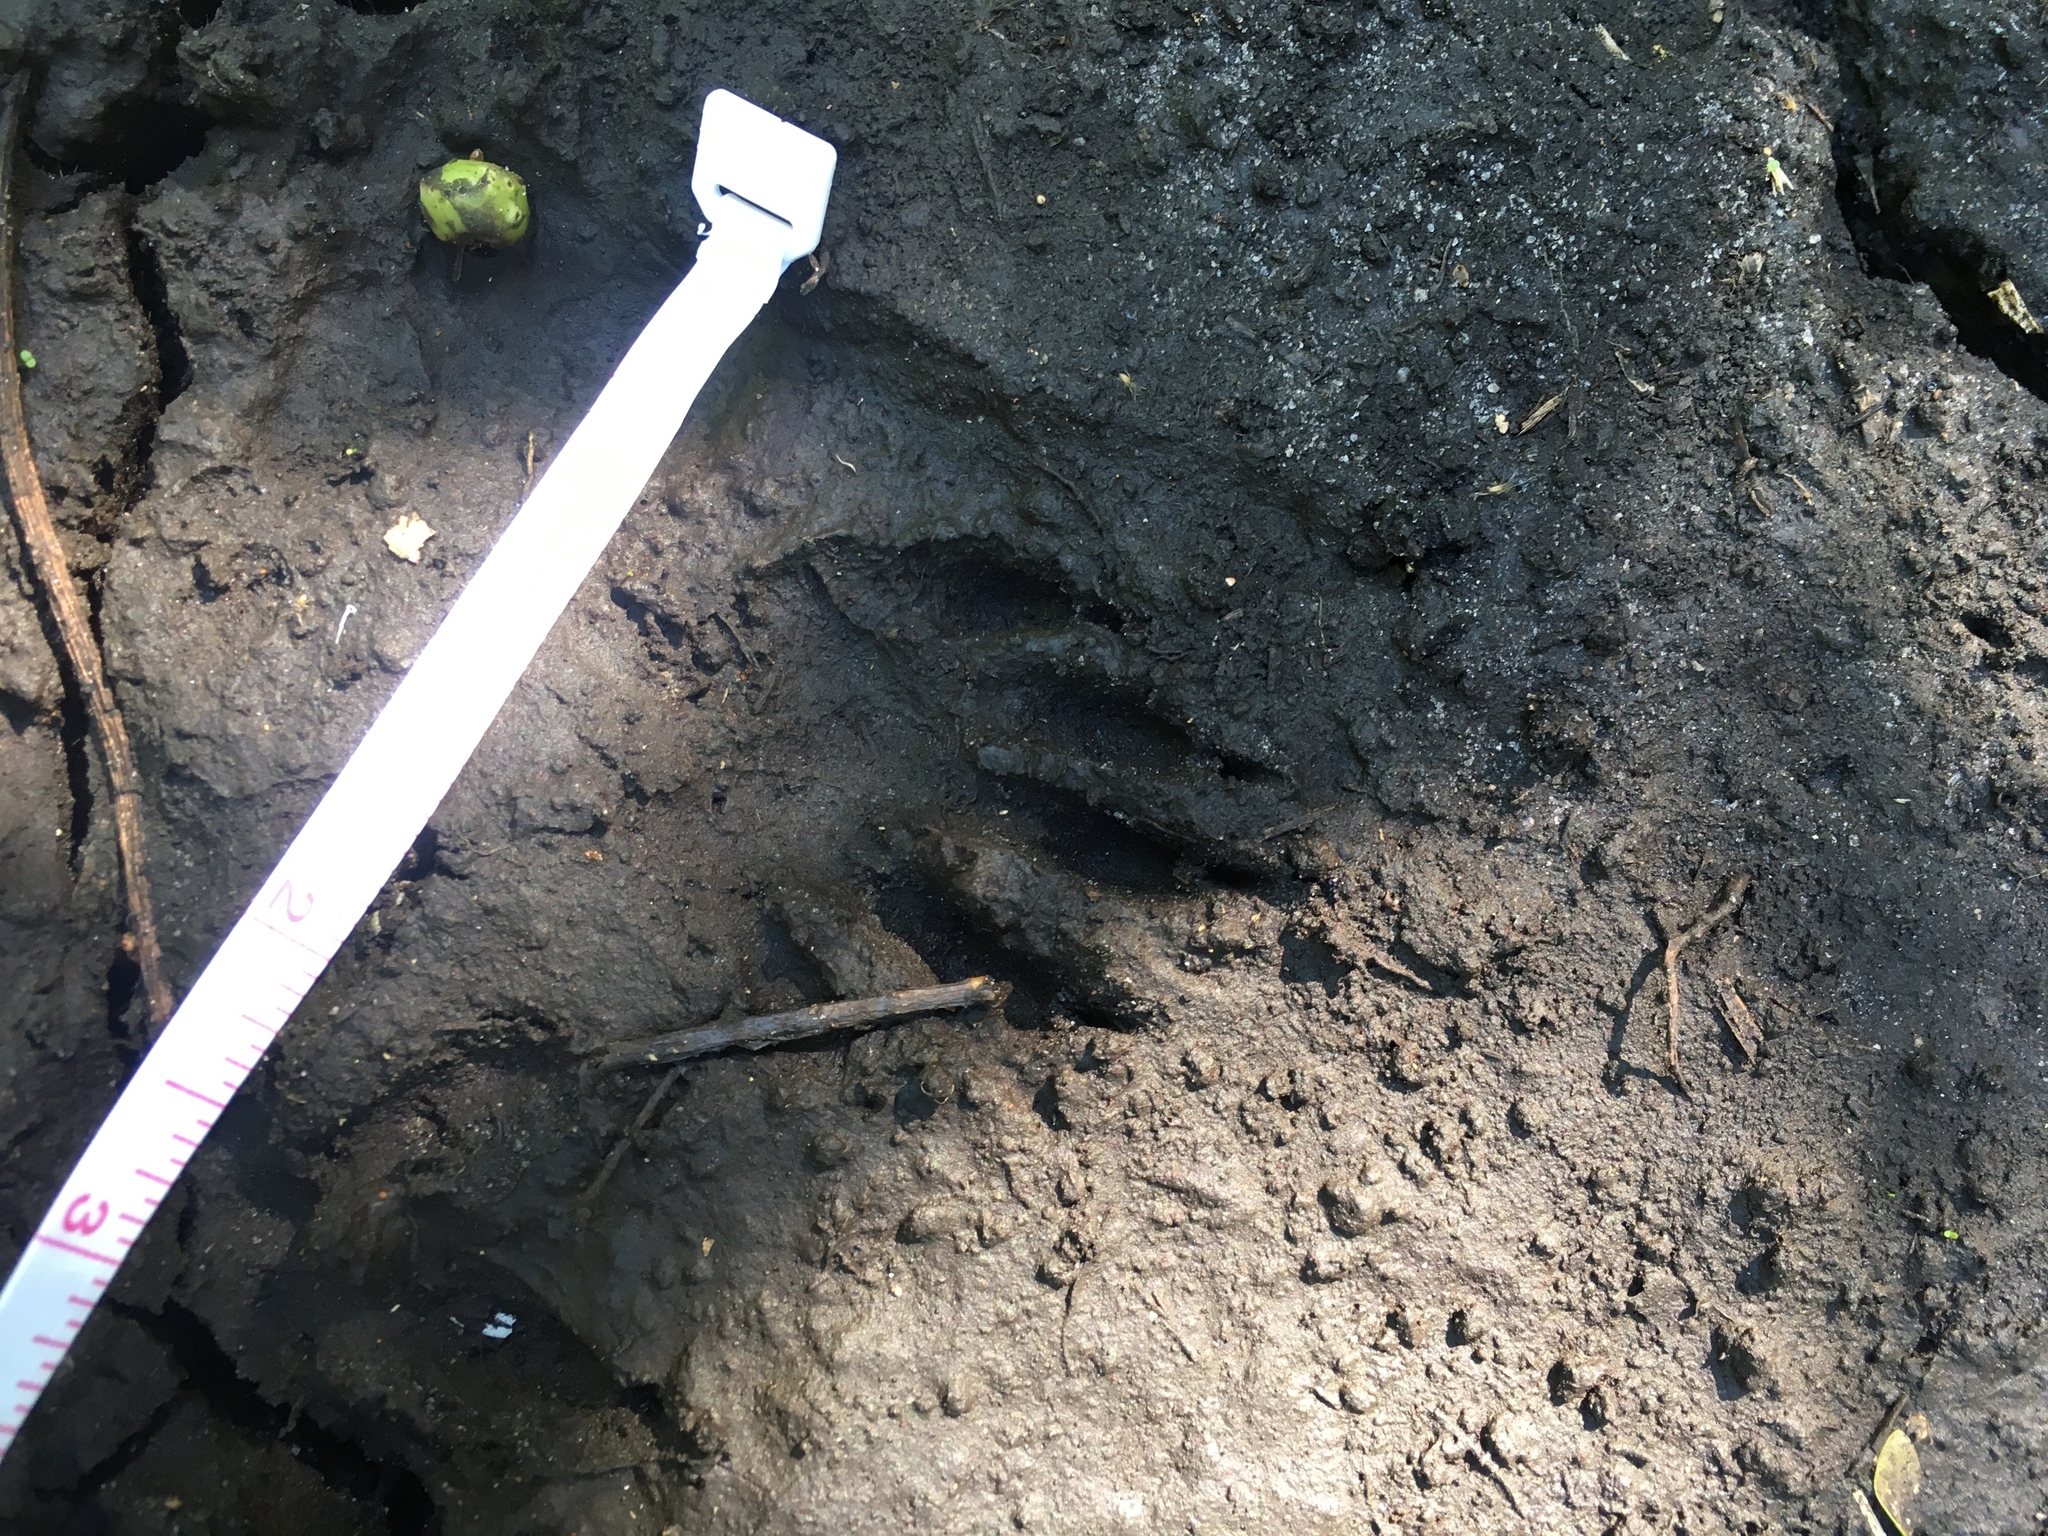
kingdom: Animalia
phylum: Chordata
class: Mammalia
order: Carnivora
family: Procyonidae
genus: Procyon
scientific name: Procyon lotor
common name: Raccoon
